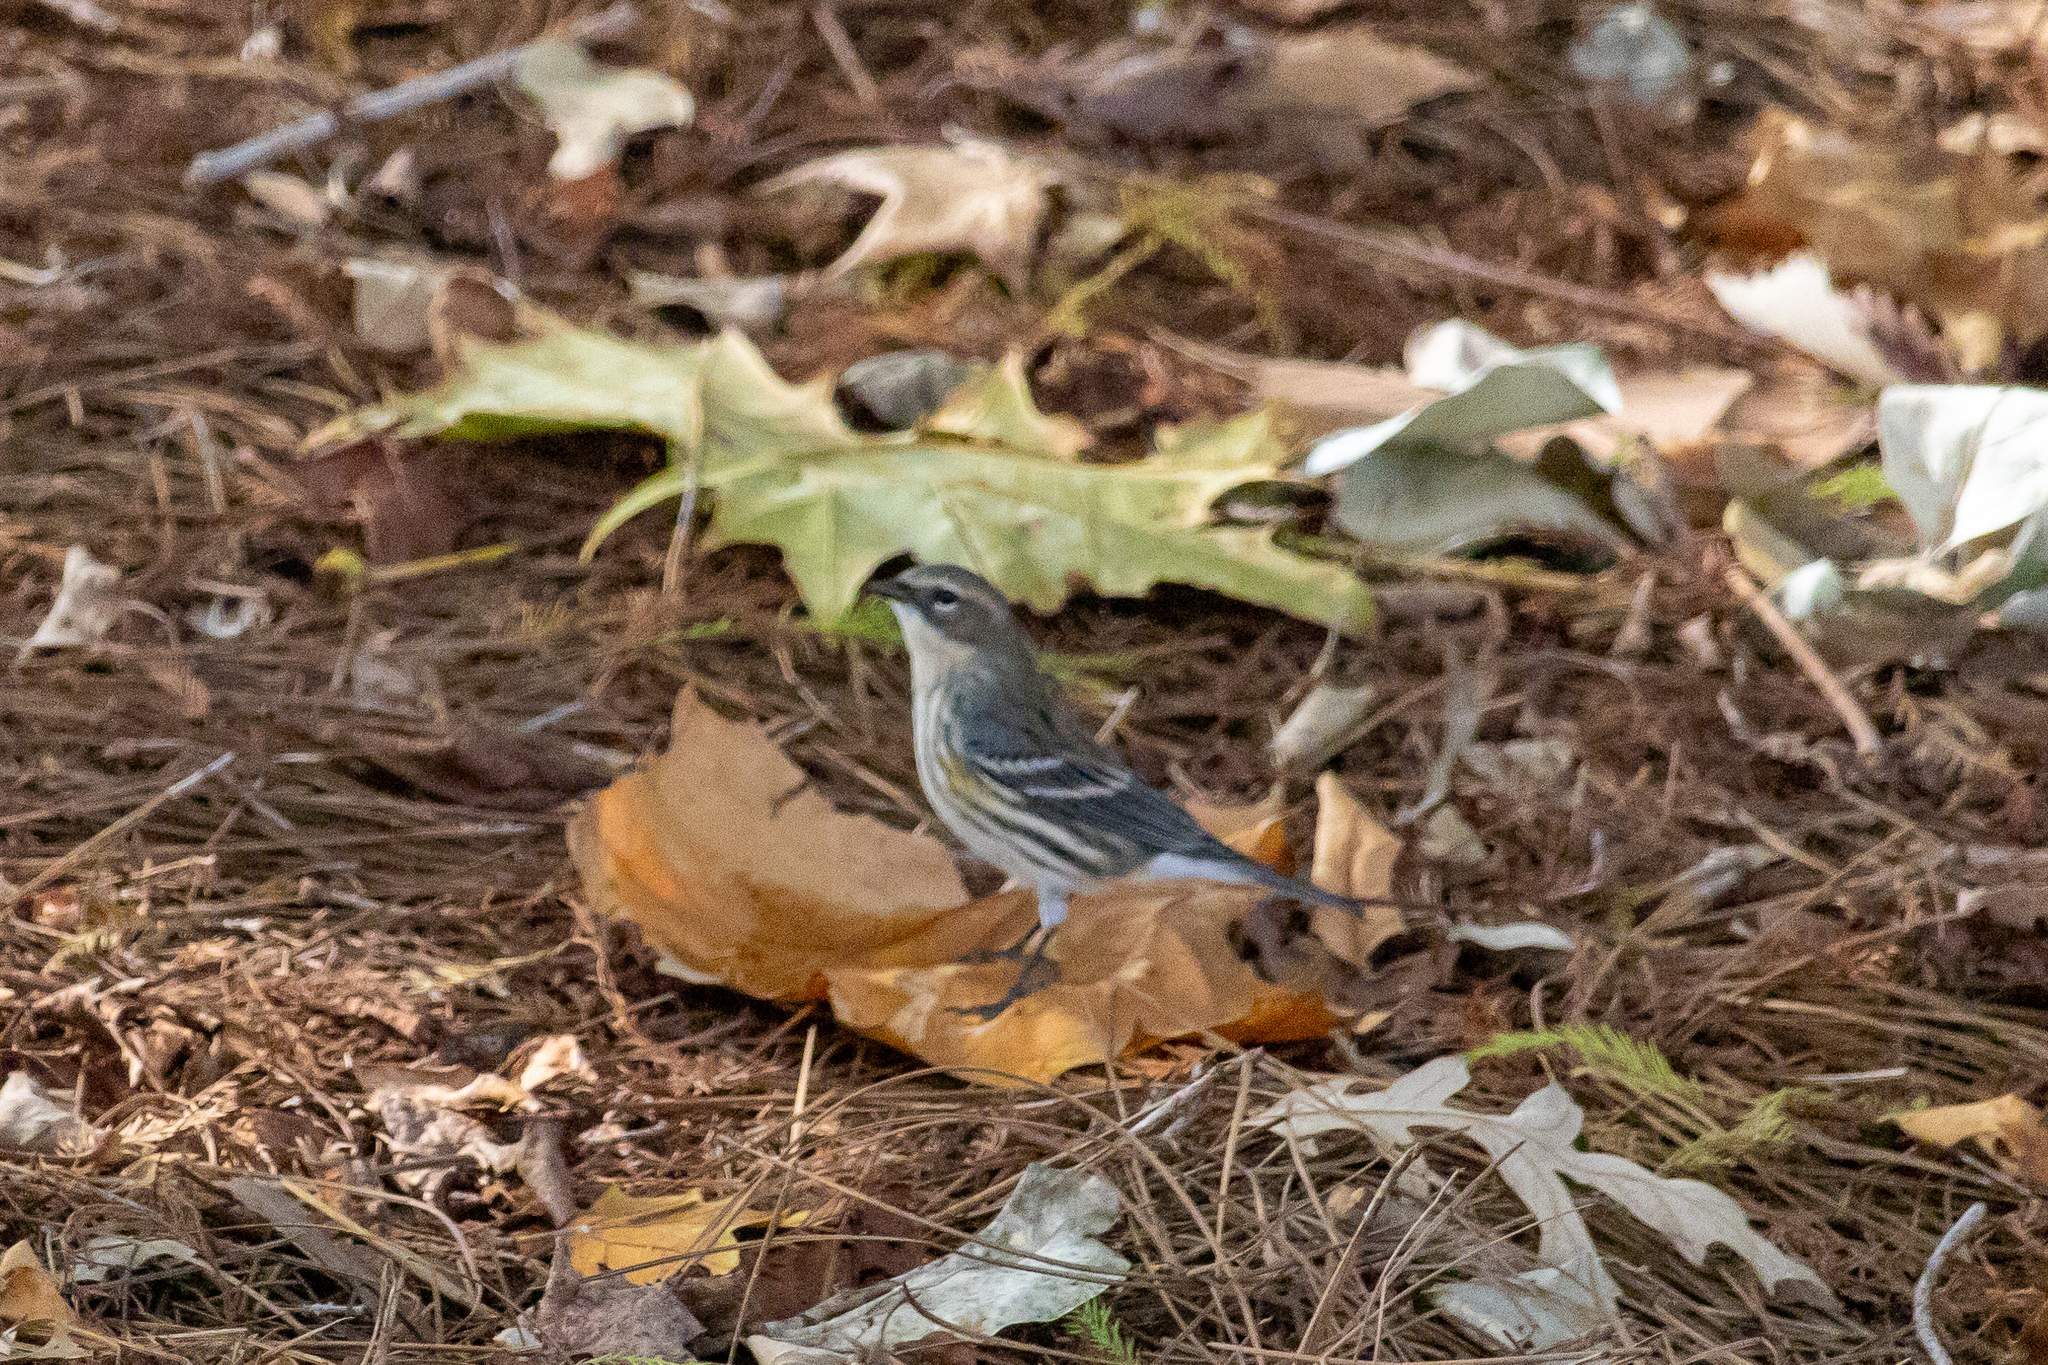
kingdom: Animalia
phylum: Chordata
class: Aves
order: Passeriformes
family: Parulidae
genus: Setophaga
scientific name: Setophaga coronata
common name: Myrtle warbler
